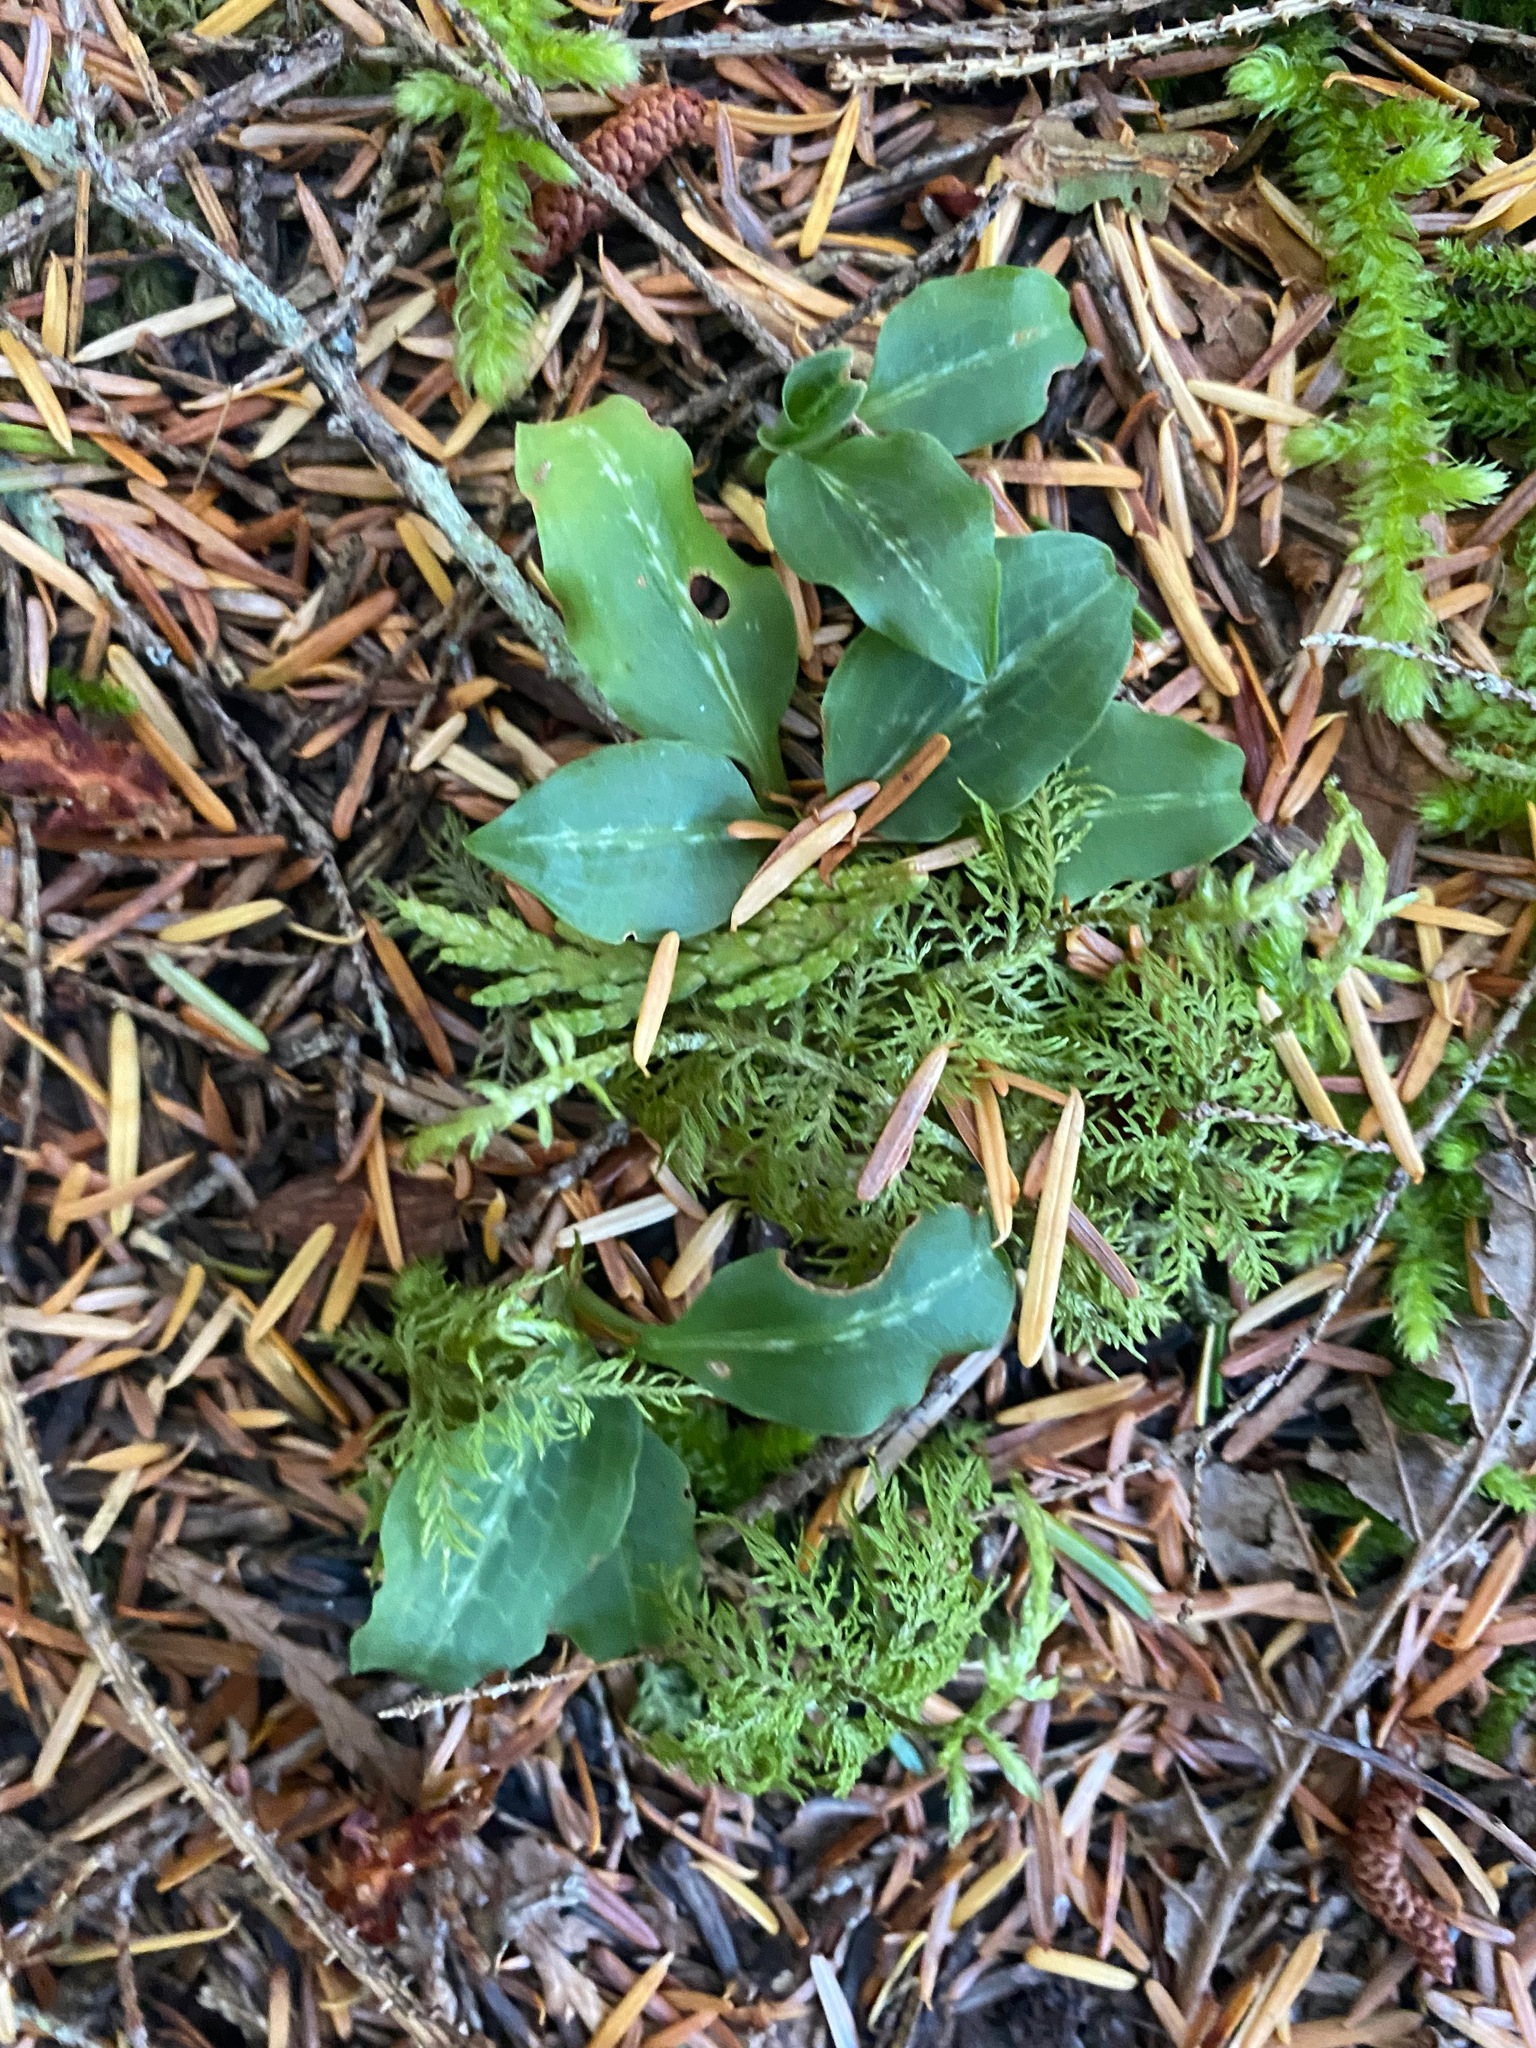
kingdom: Plantae
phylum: Tracheophyta
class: Liliopsida
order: Asparagales
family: Orchidaceae
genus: Goodyera
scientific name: Goodyera oblongifolia
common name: Giant rattlesnake-plantain
